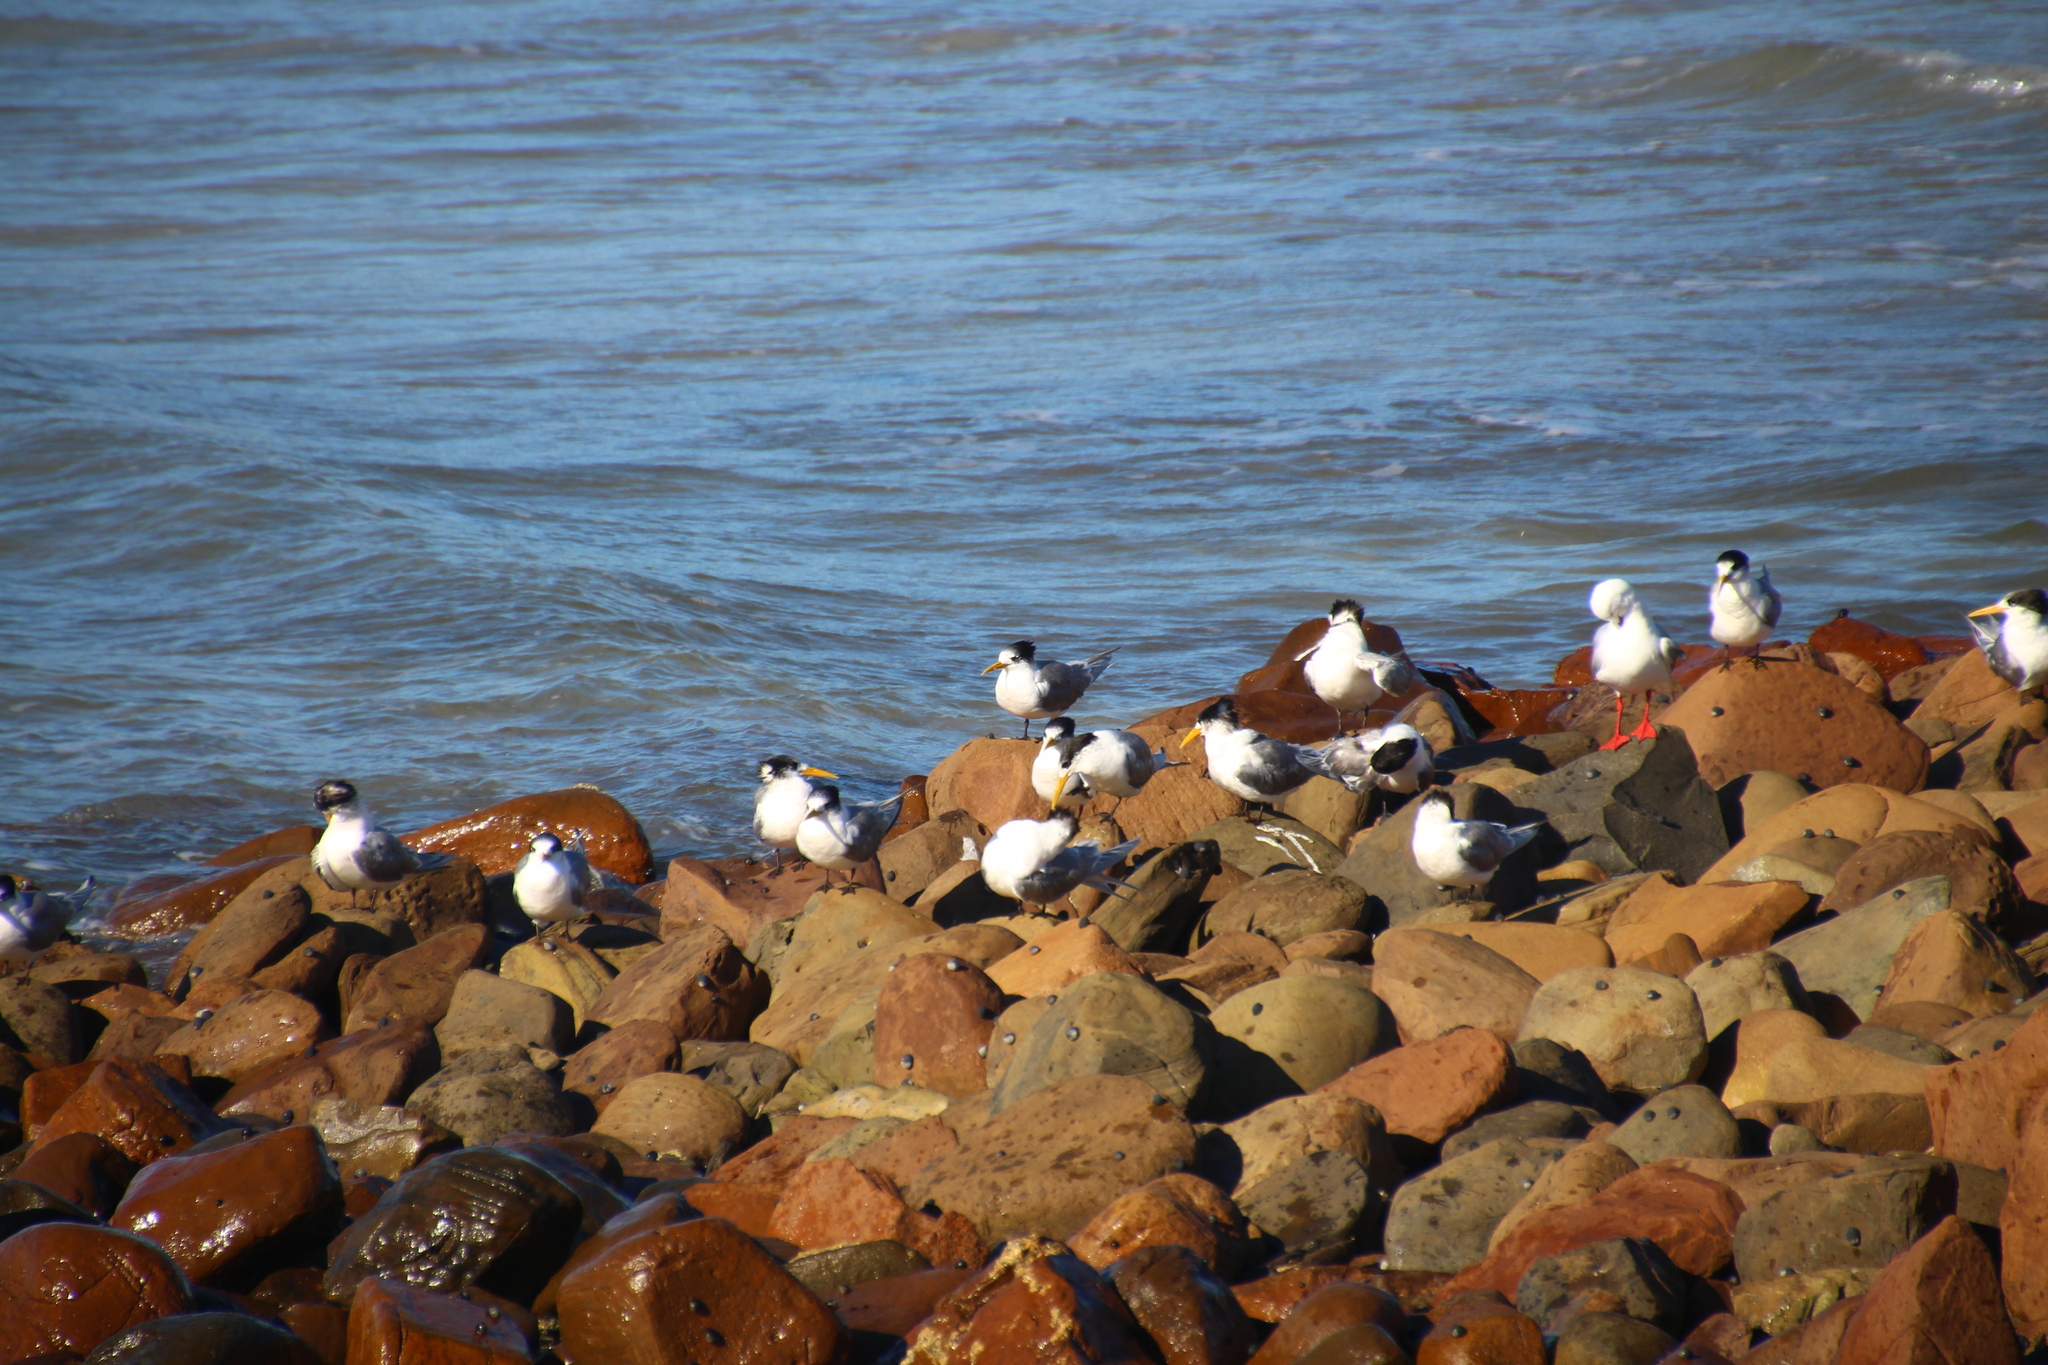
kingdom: Animalia
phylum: Chordata
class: Aves
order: Charadriiformes
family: Laridae
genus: Thalasseus
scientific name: Thalasseus bergii
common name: Greater crested tern
